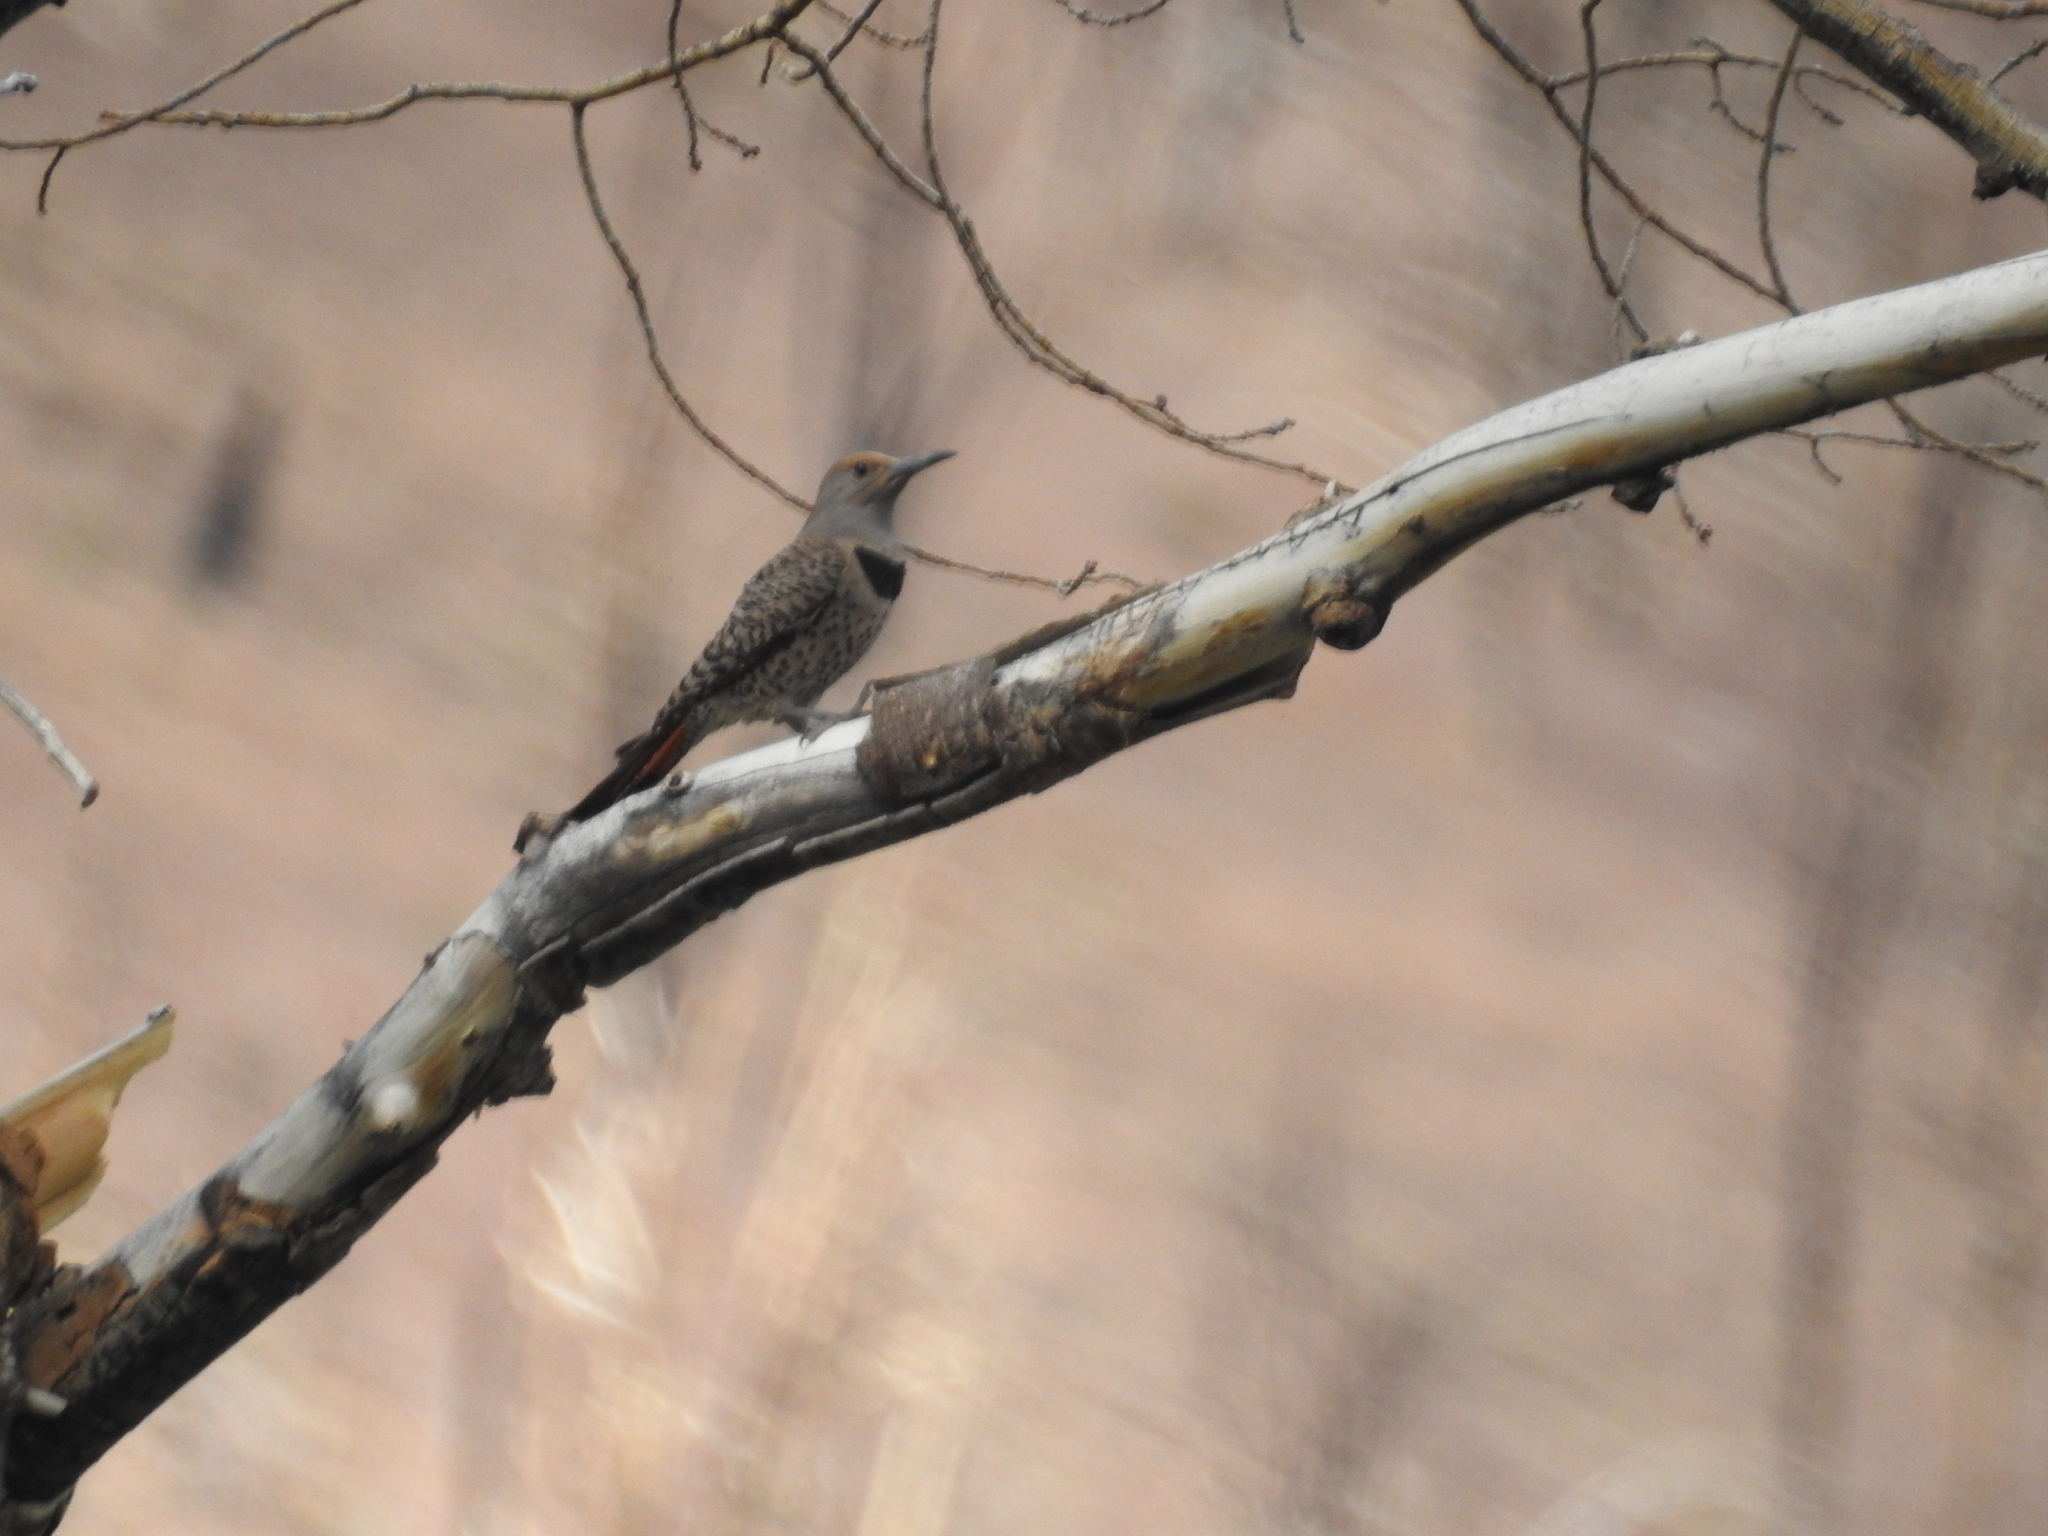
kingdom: Animalia
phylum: Chordata
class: Aves
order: Piciformes
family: Picidae
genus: Colaptes
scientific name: Colaptes auratus
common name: Northern flicker
